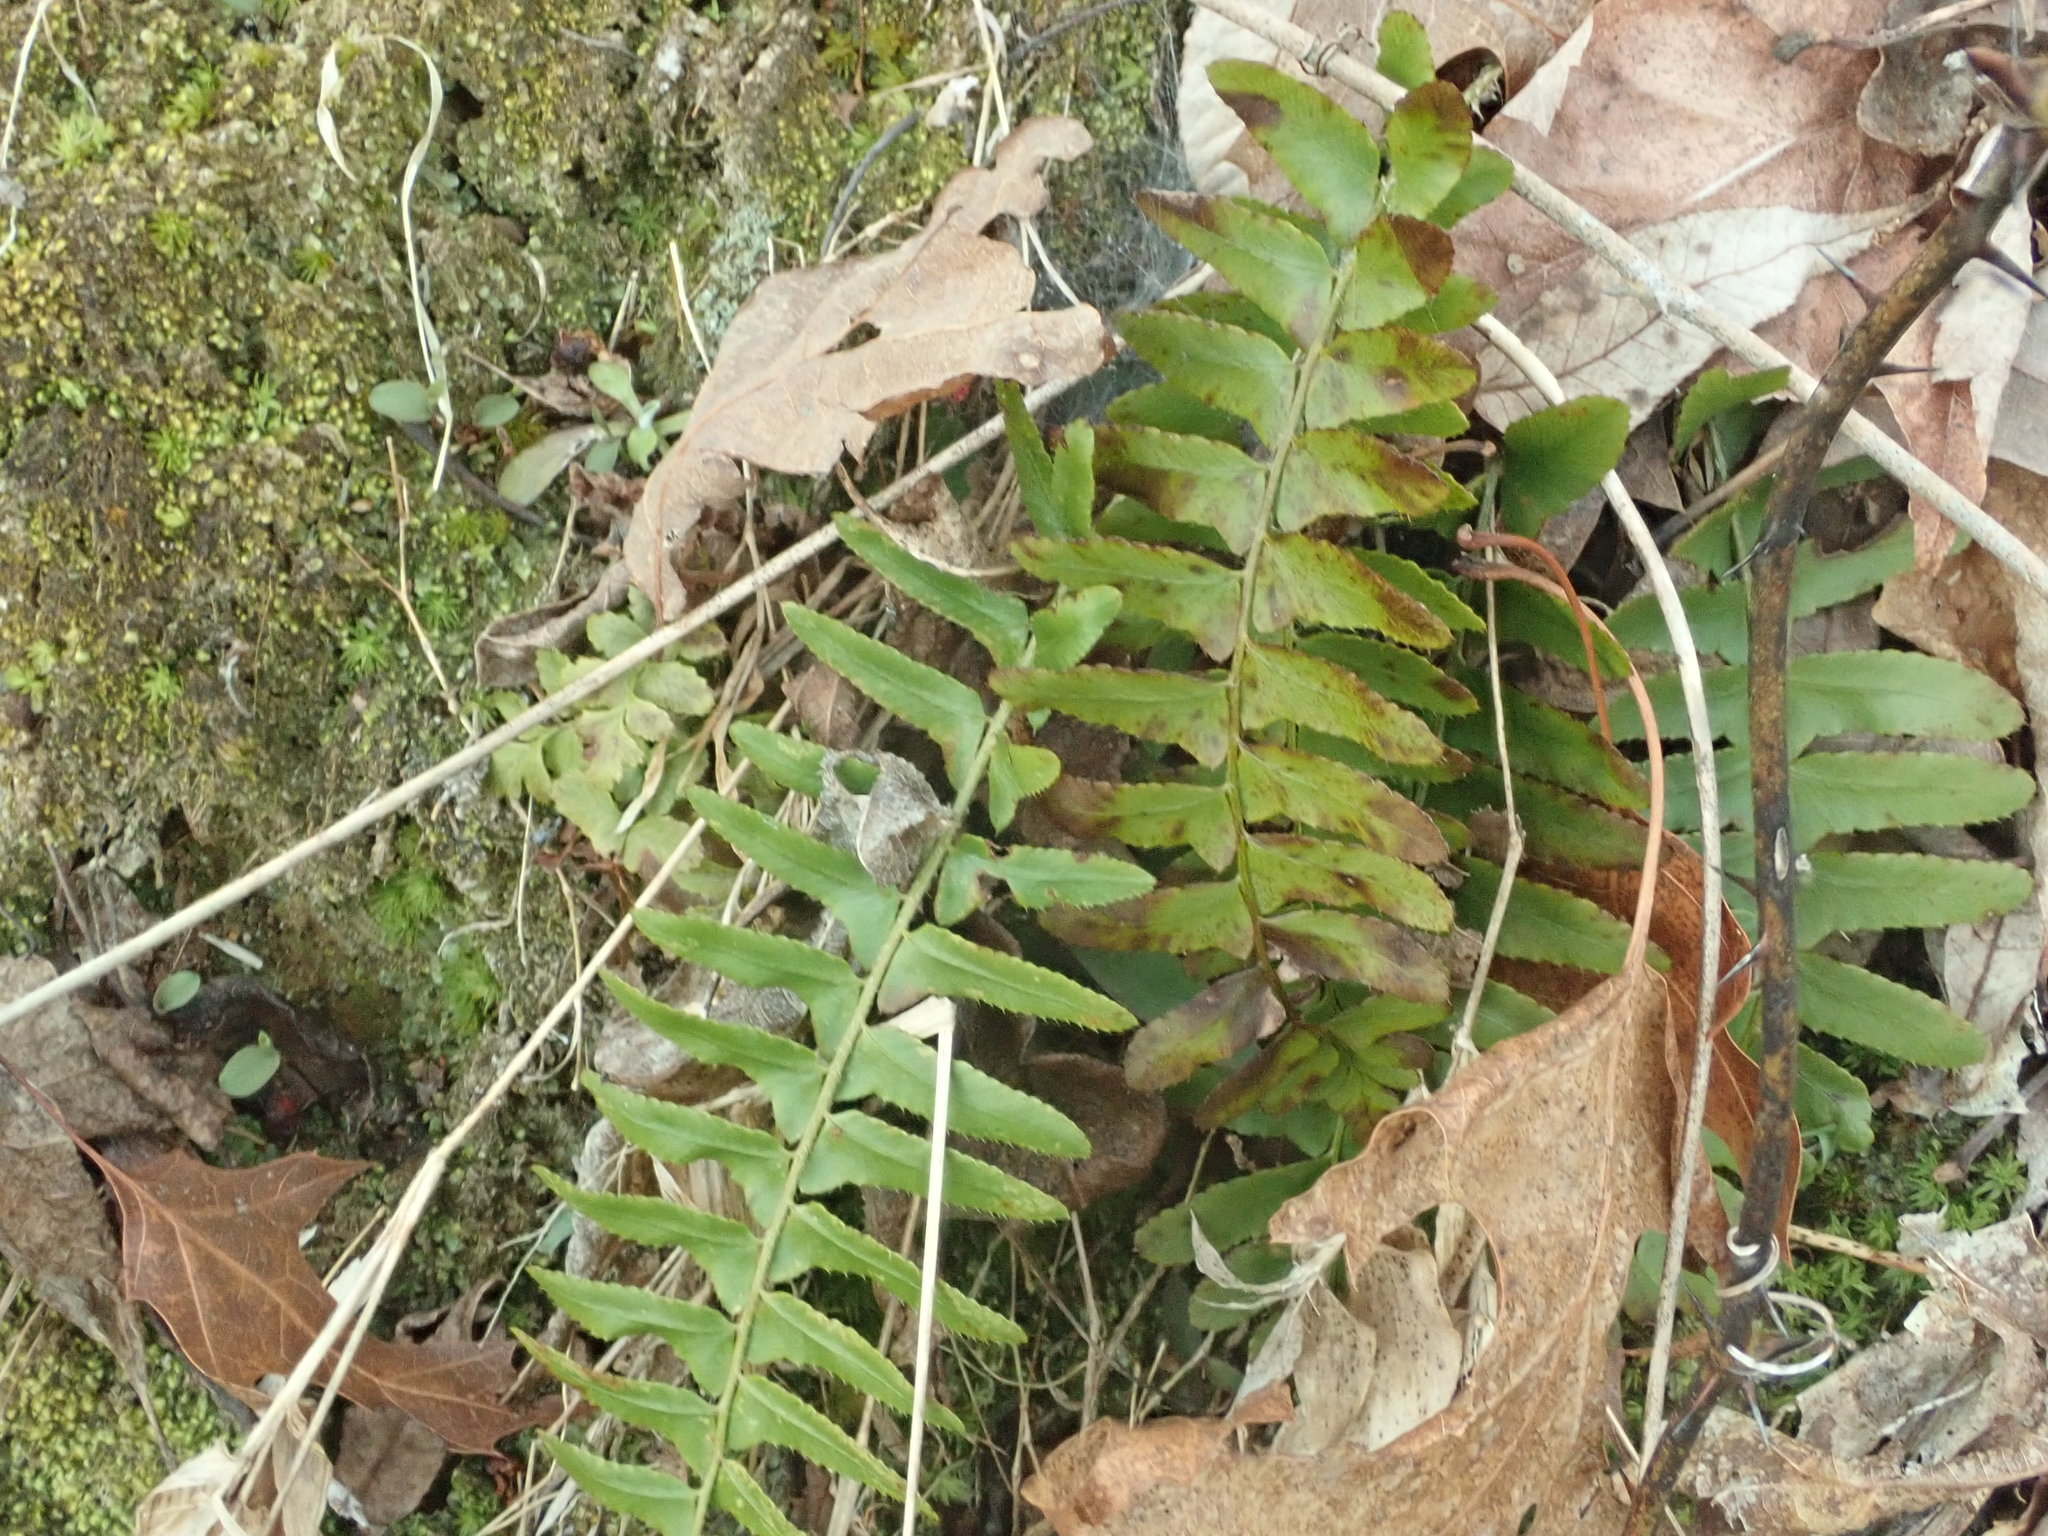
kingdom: Plantae
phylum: Tracheophyta
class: Polypodiopsida
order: Polypodiales
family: Dryopteridaceae
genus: Polystichum
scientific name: Polystichum acrostichoides
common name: Christmas fern
